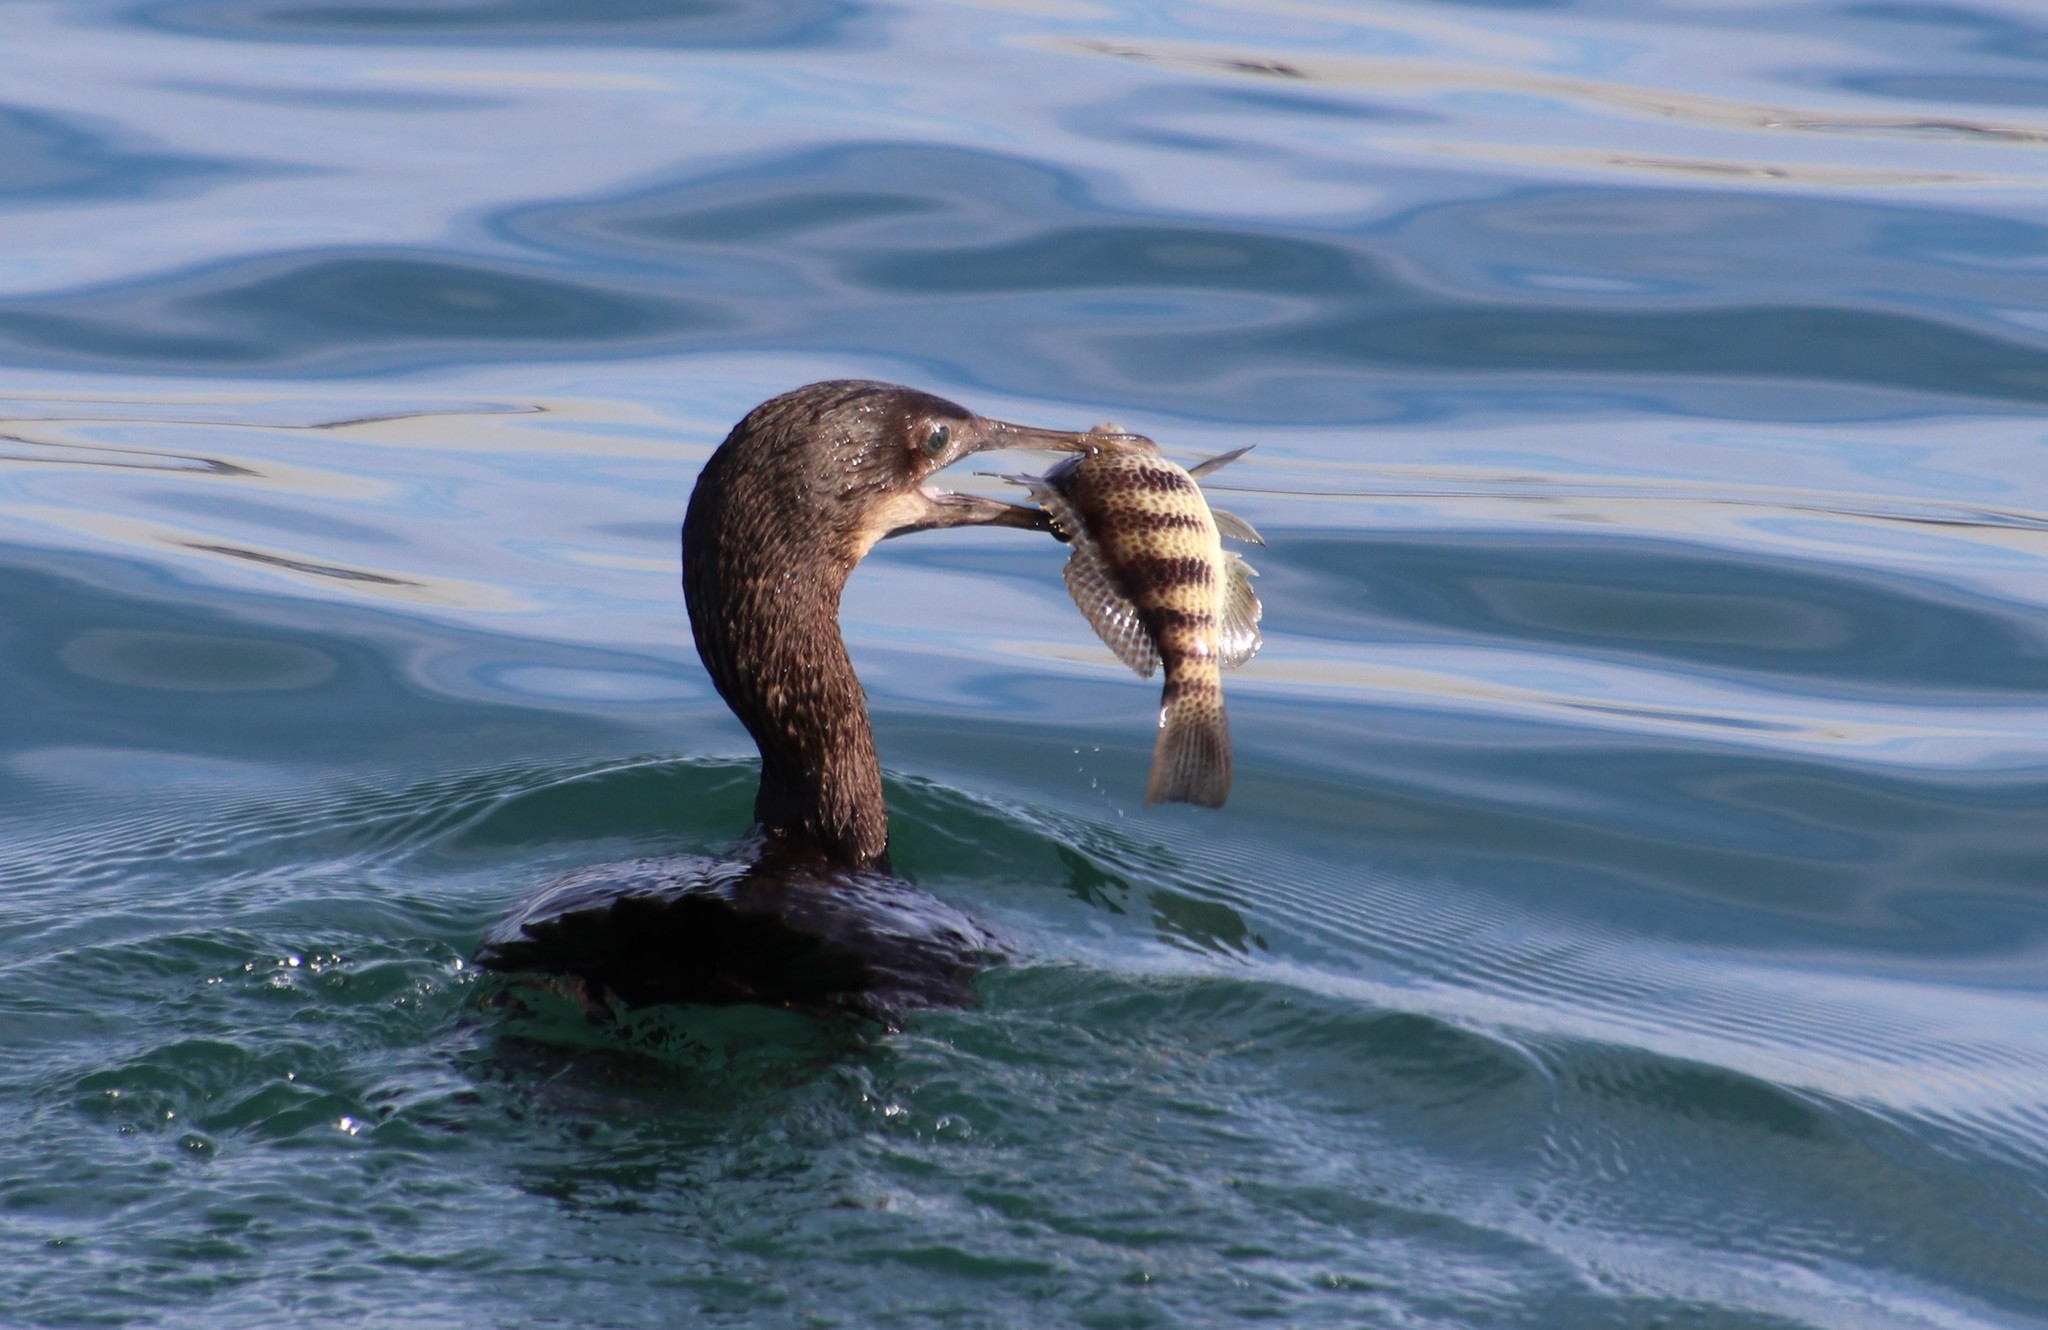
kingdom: Animalia
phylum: Chordata
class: Aves
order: Suliformes
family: Phalacrocoracidae
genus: Urile
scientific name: Urile penicillatus
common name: Brandt's cormorant
